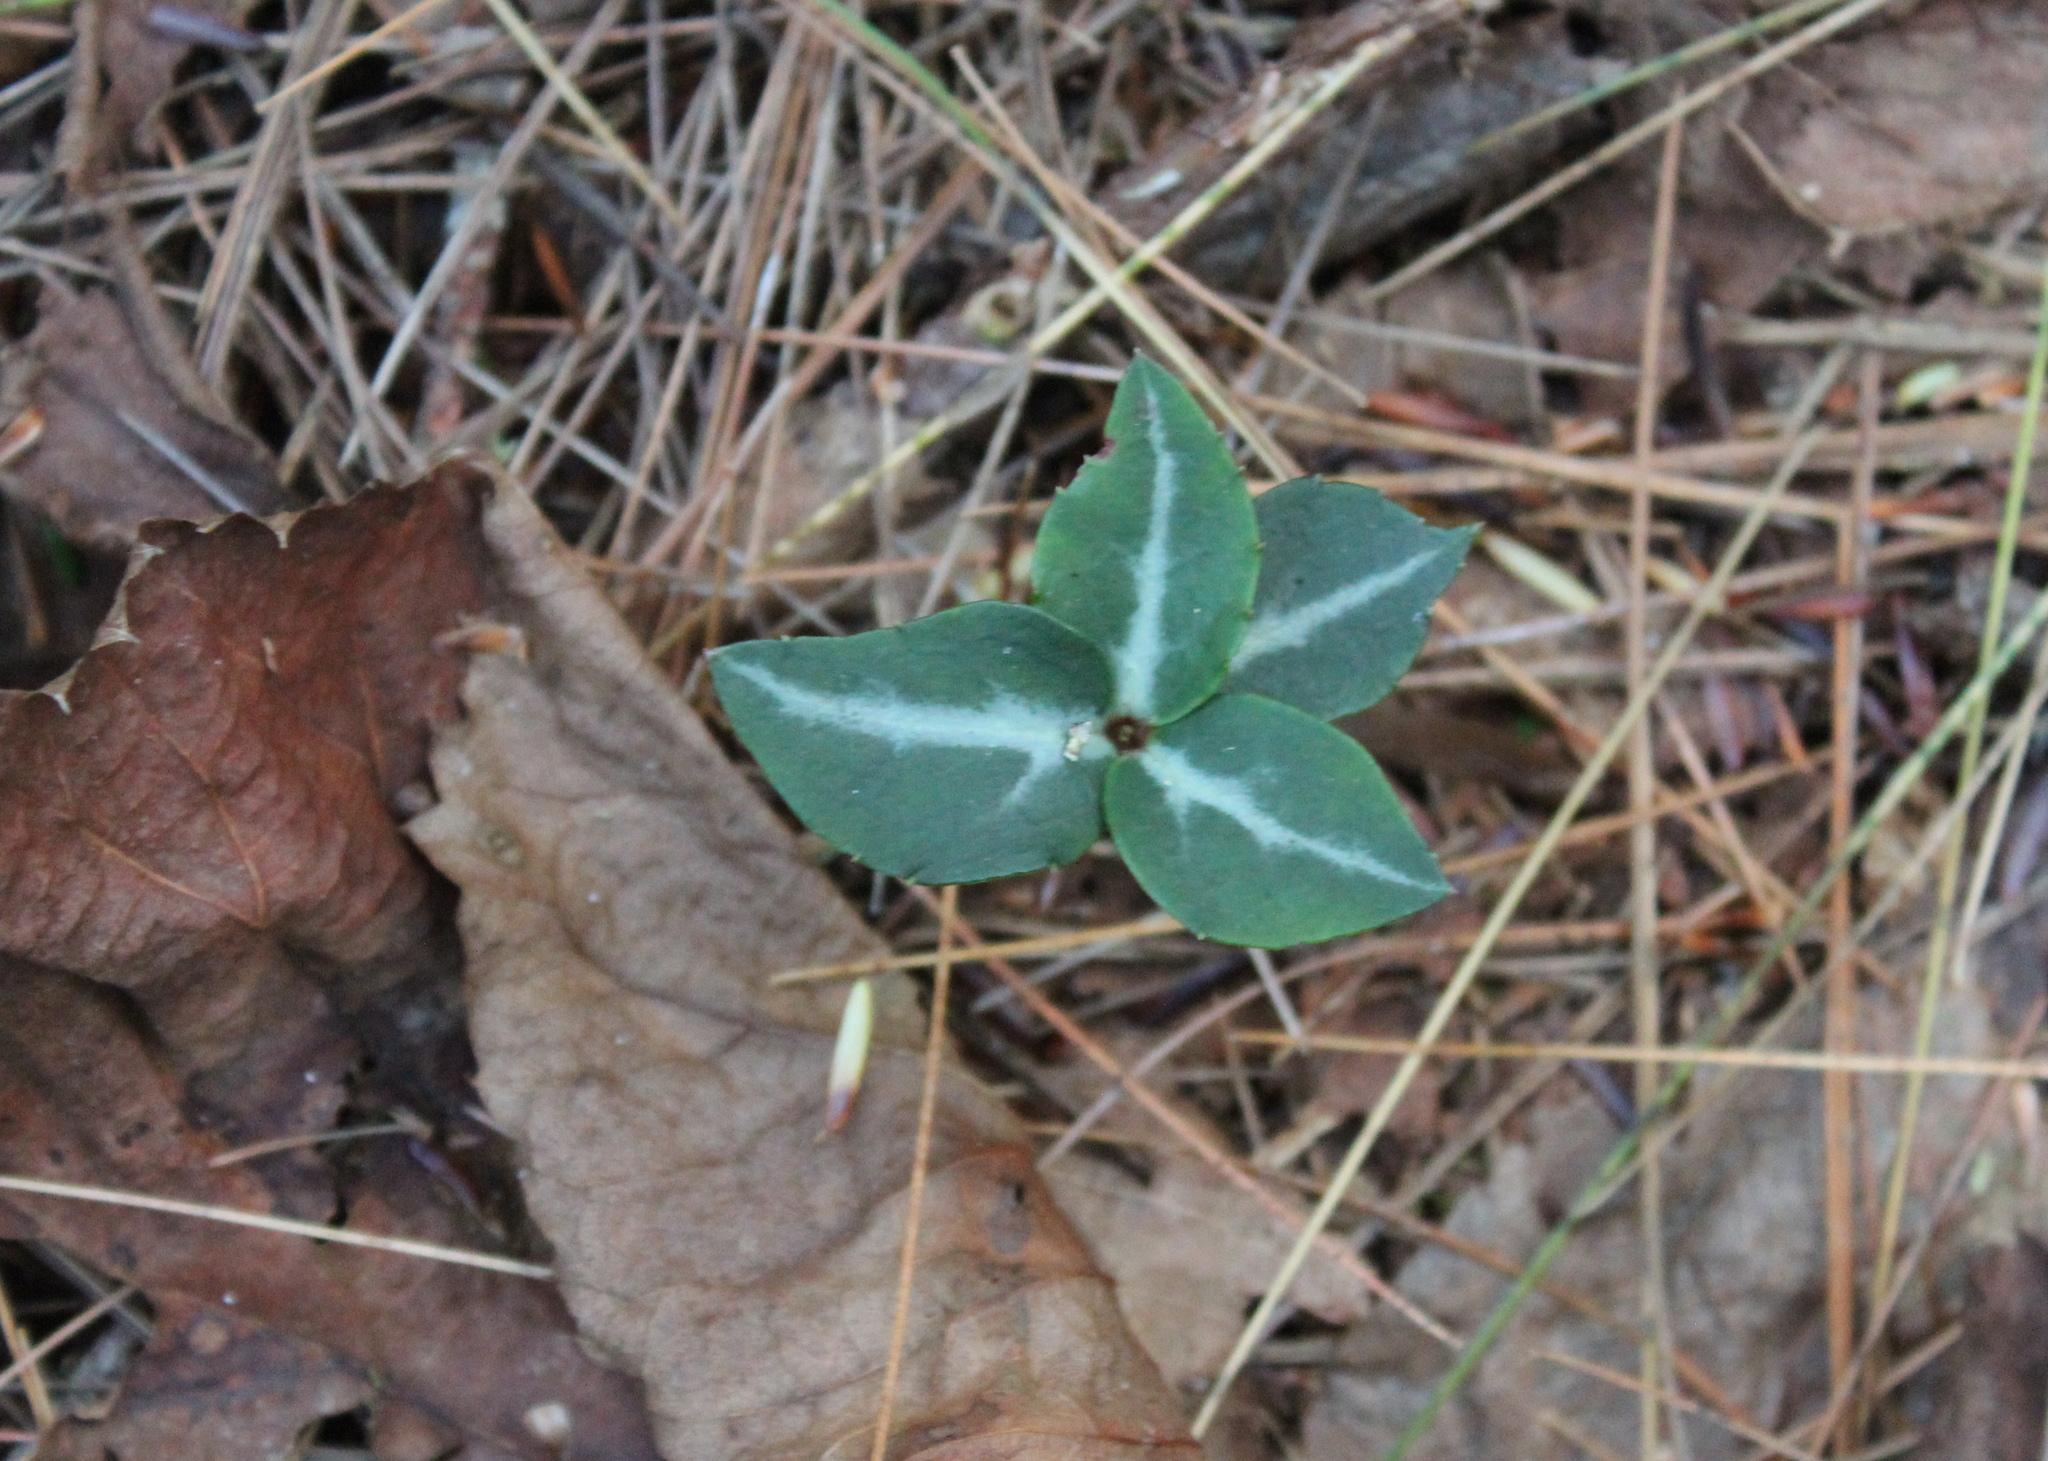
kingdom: Plantae
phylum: Tracheophyta
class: Magnoliopsida
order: Ericales
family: Ericaceae
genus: Chimaphila
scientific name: Chimaphila maculata
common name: Spotted pipsissewa
